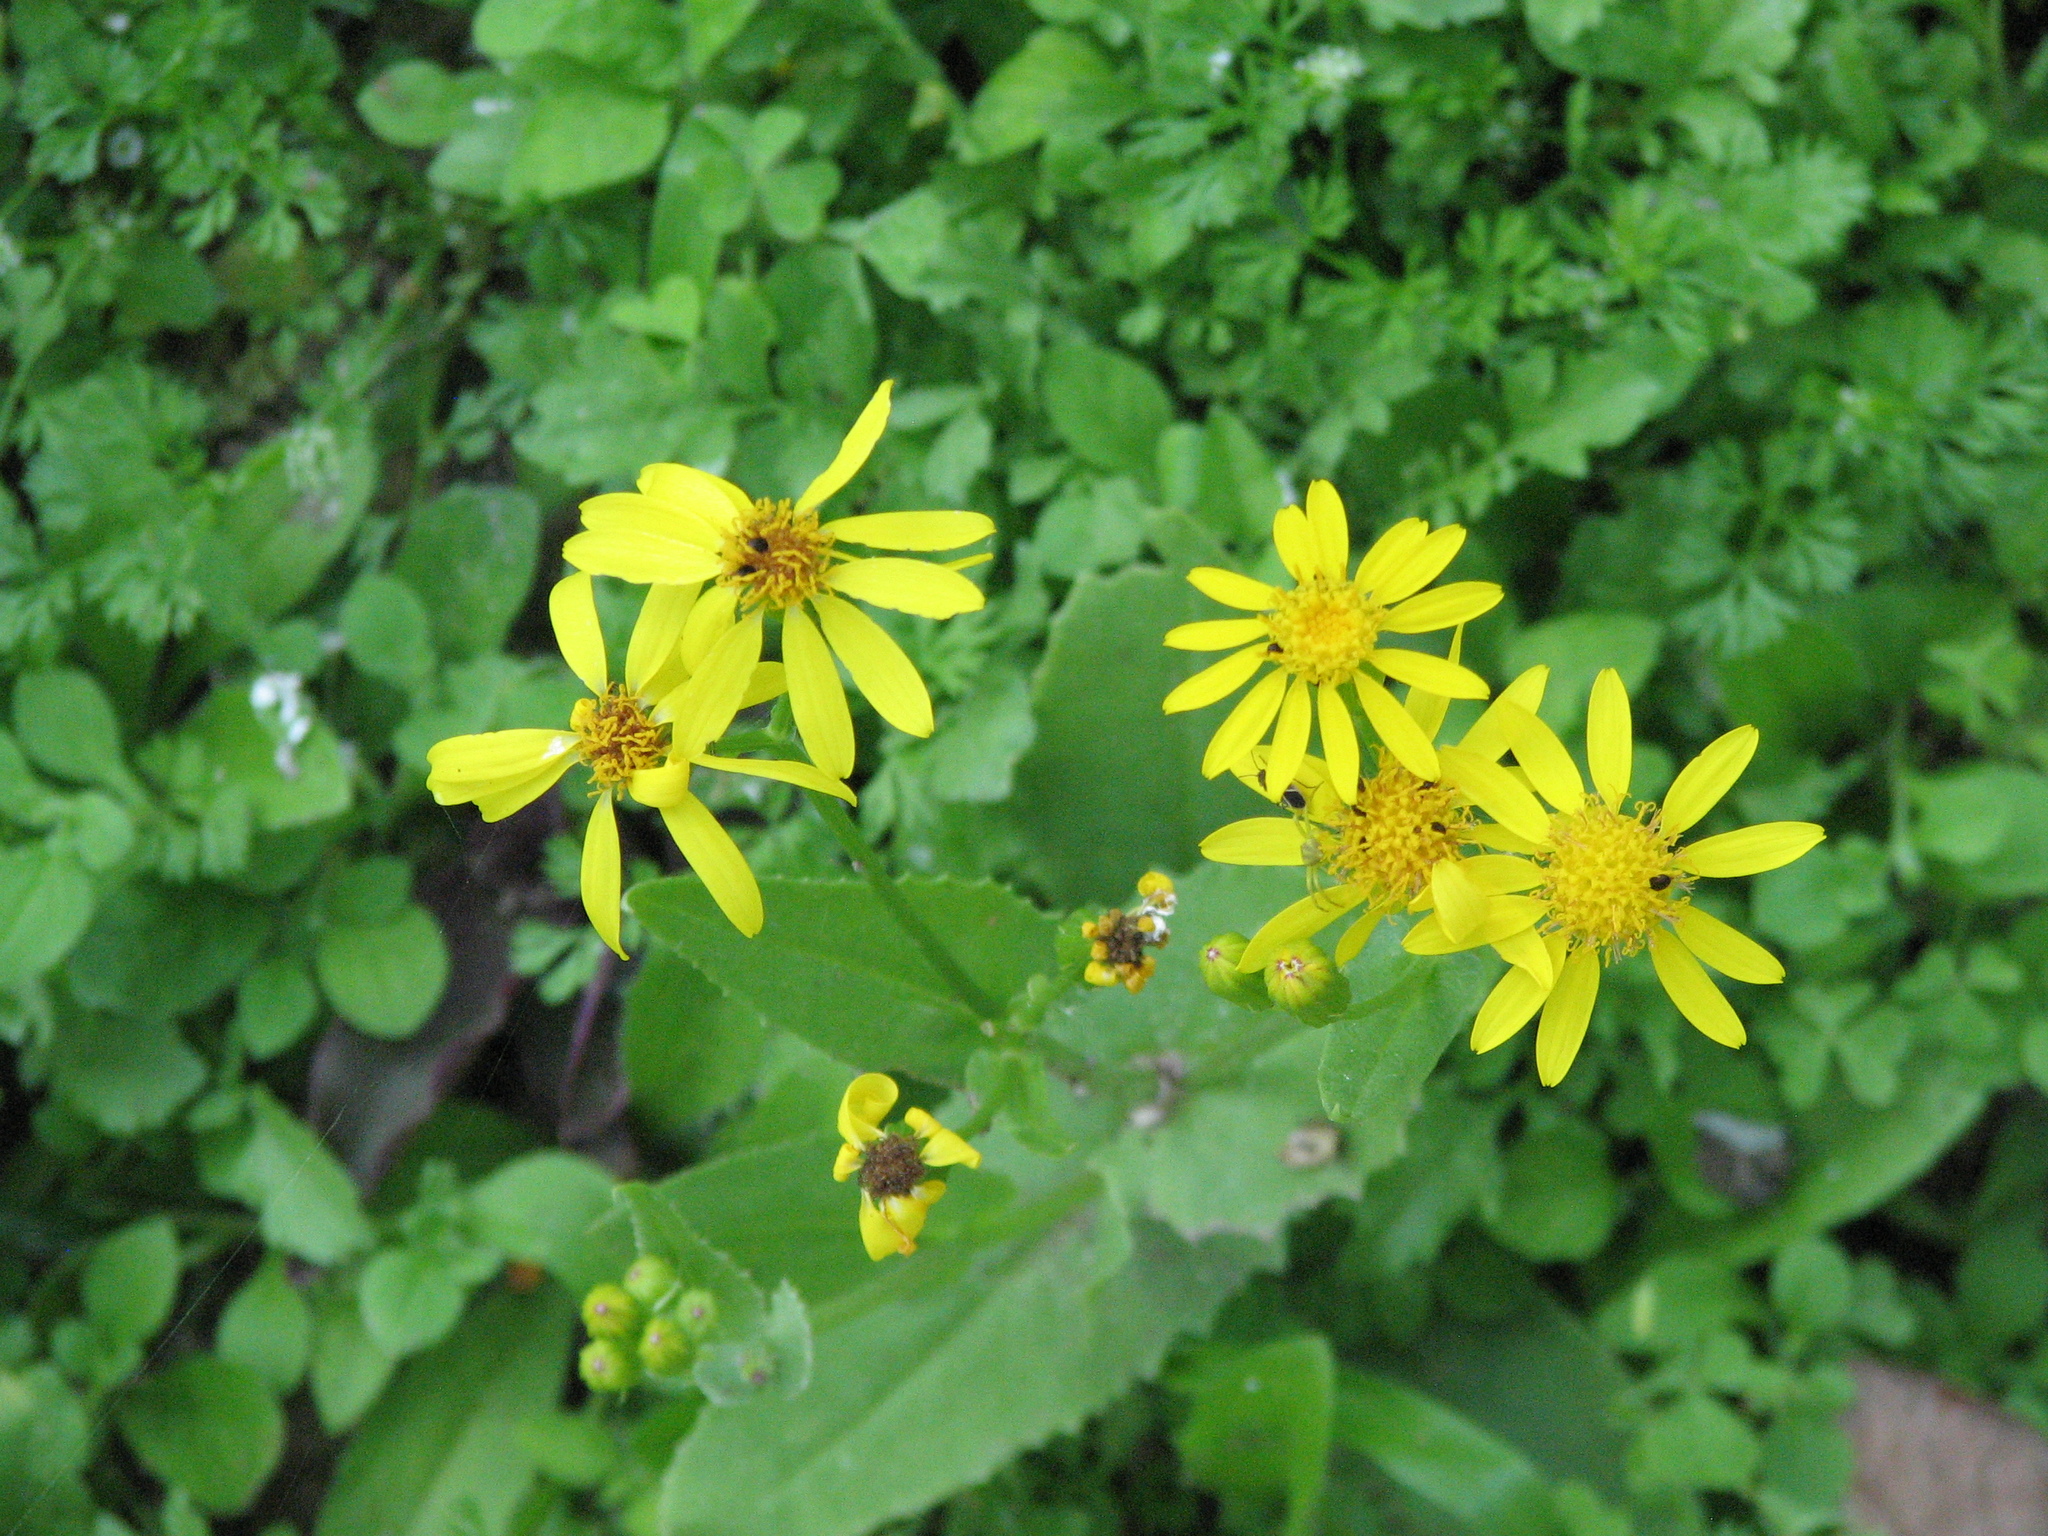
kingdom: Plantae
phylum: Tracheophyta
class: Magnoliopsida
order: Asterales
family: Asteraceae
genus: Senecio
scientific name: Senecio ampullaceus
